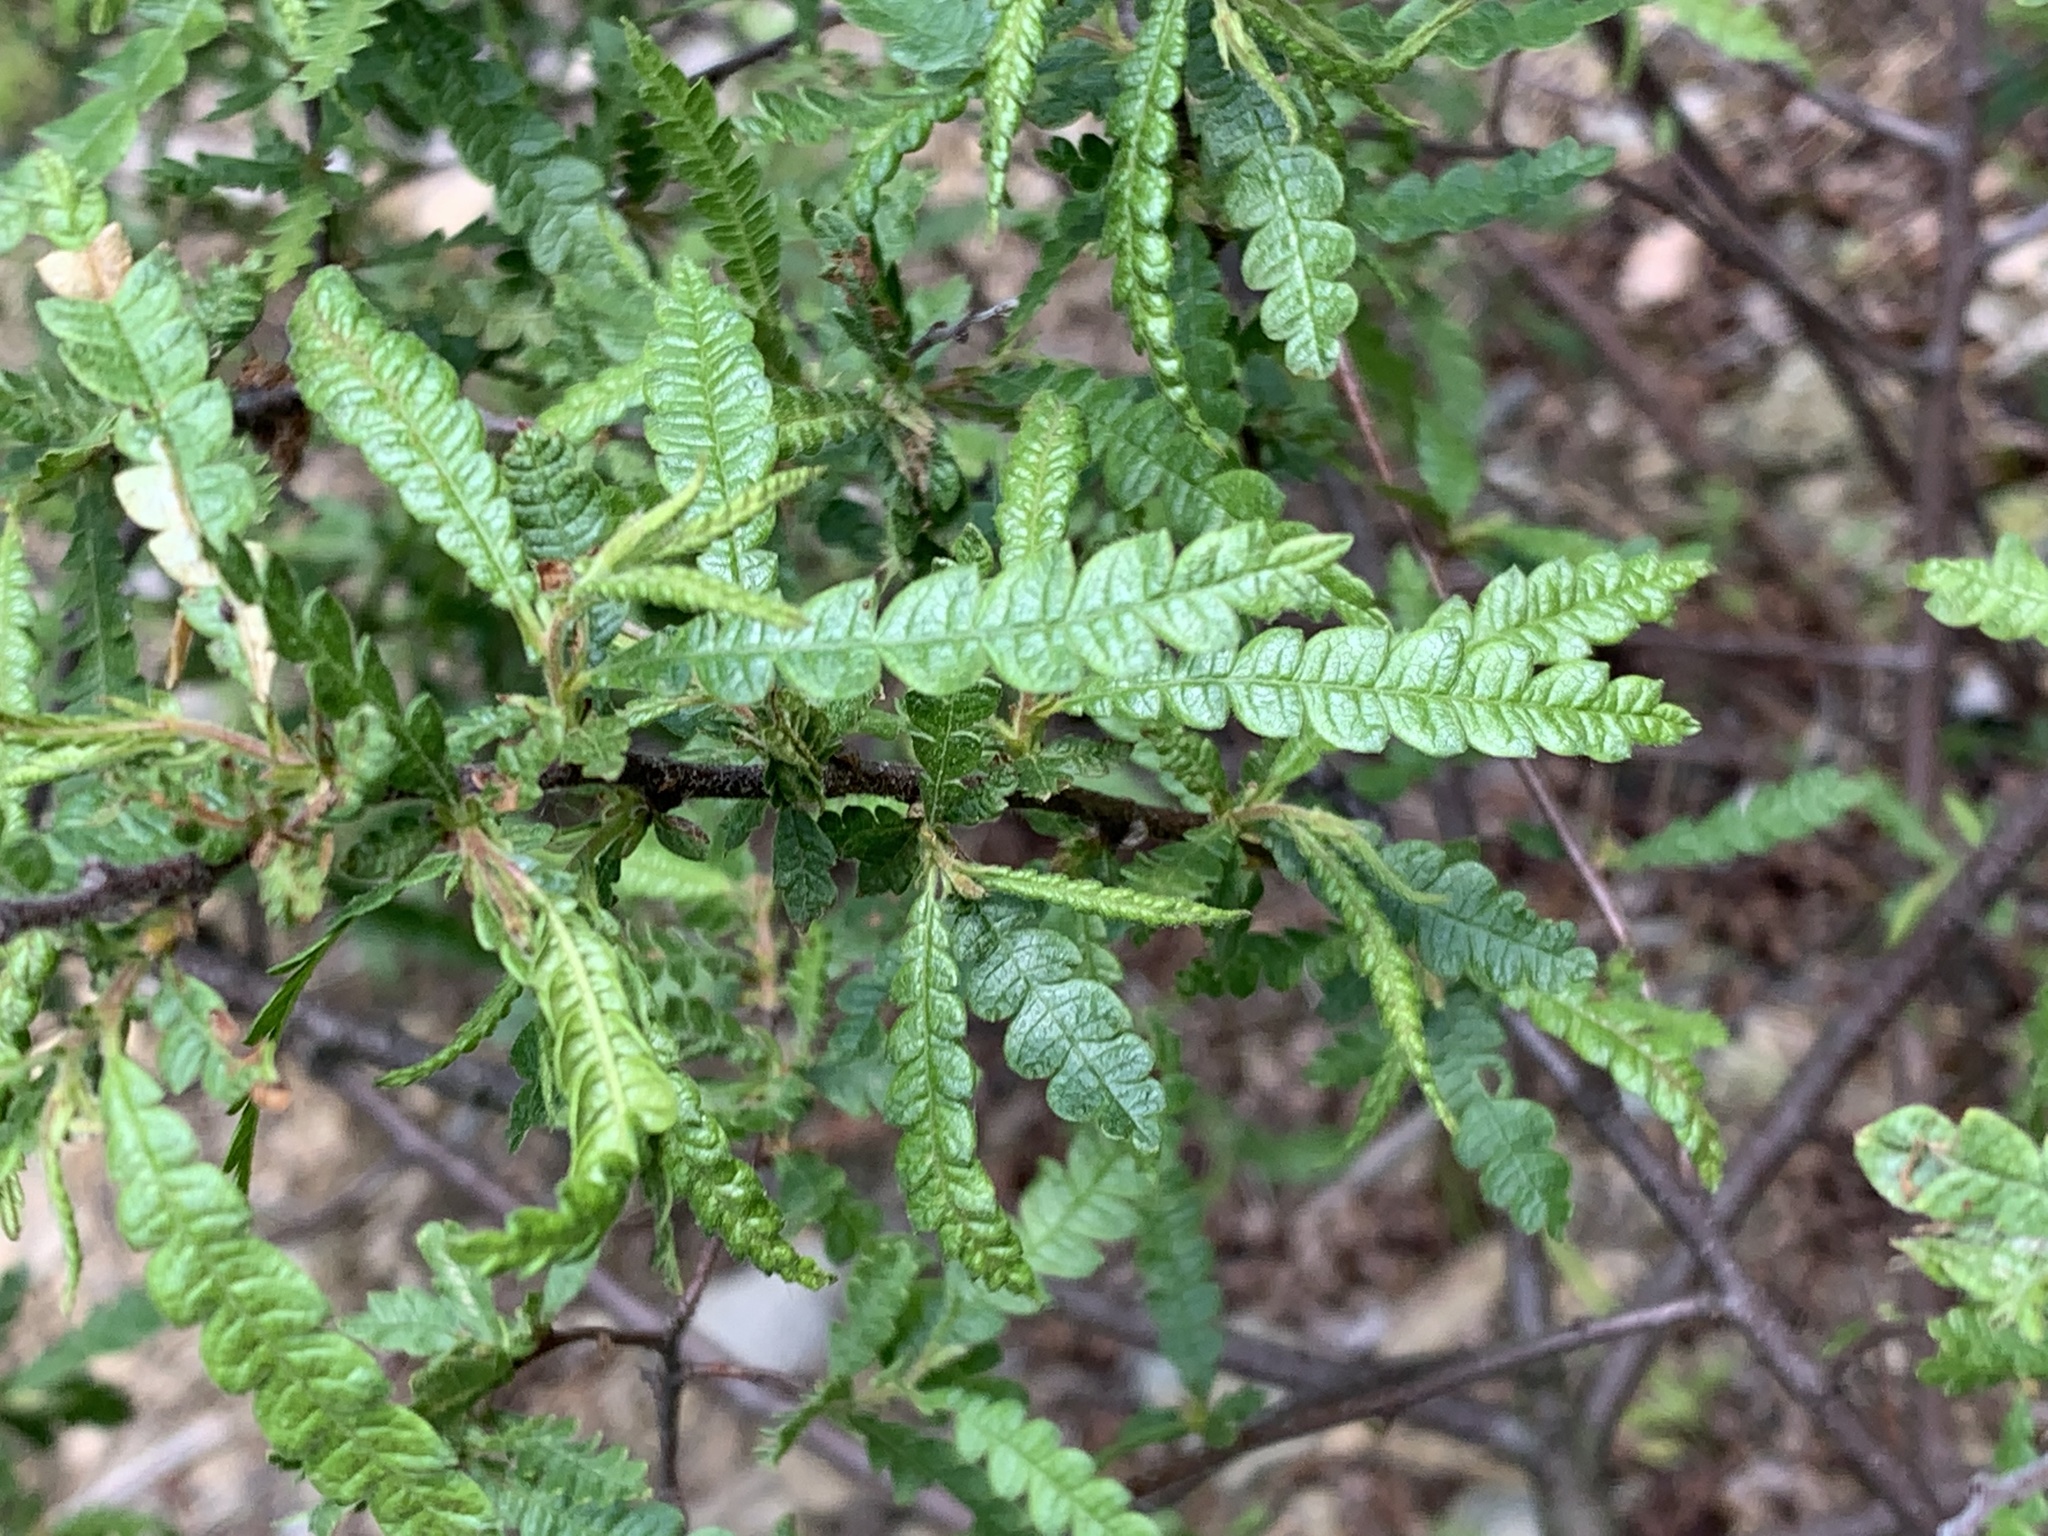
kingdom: Plantae
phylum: Tracheophyta
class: Magnoliopsida
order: Fagales
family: Myricaceae
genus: Comptonia
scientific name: Comptonia peregrina
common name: Sweet-fern
